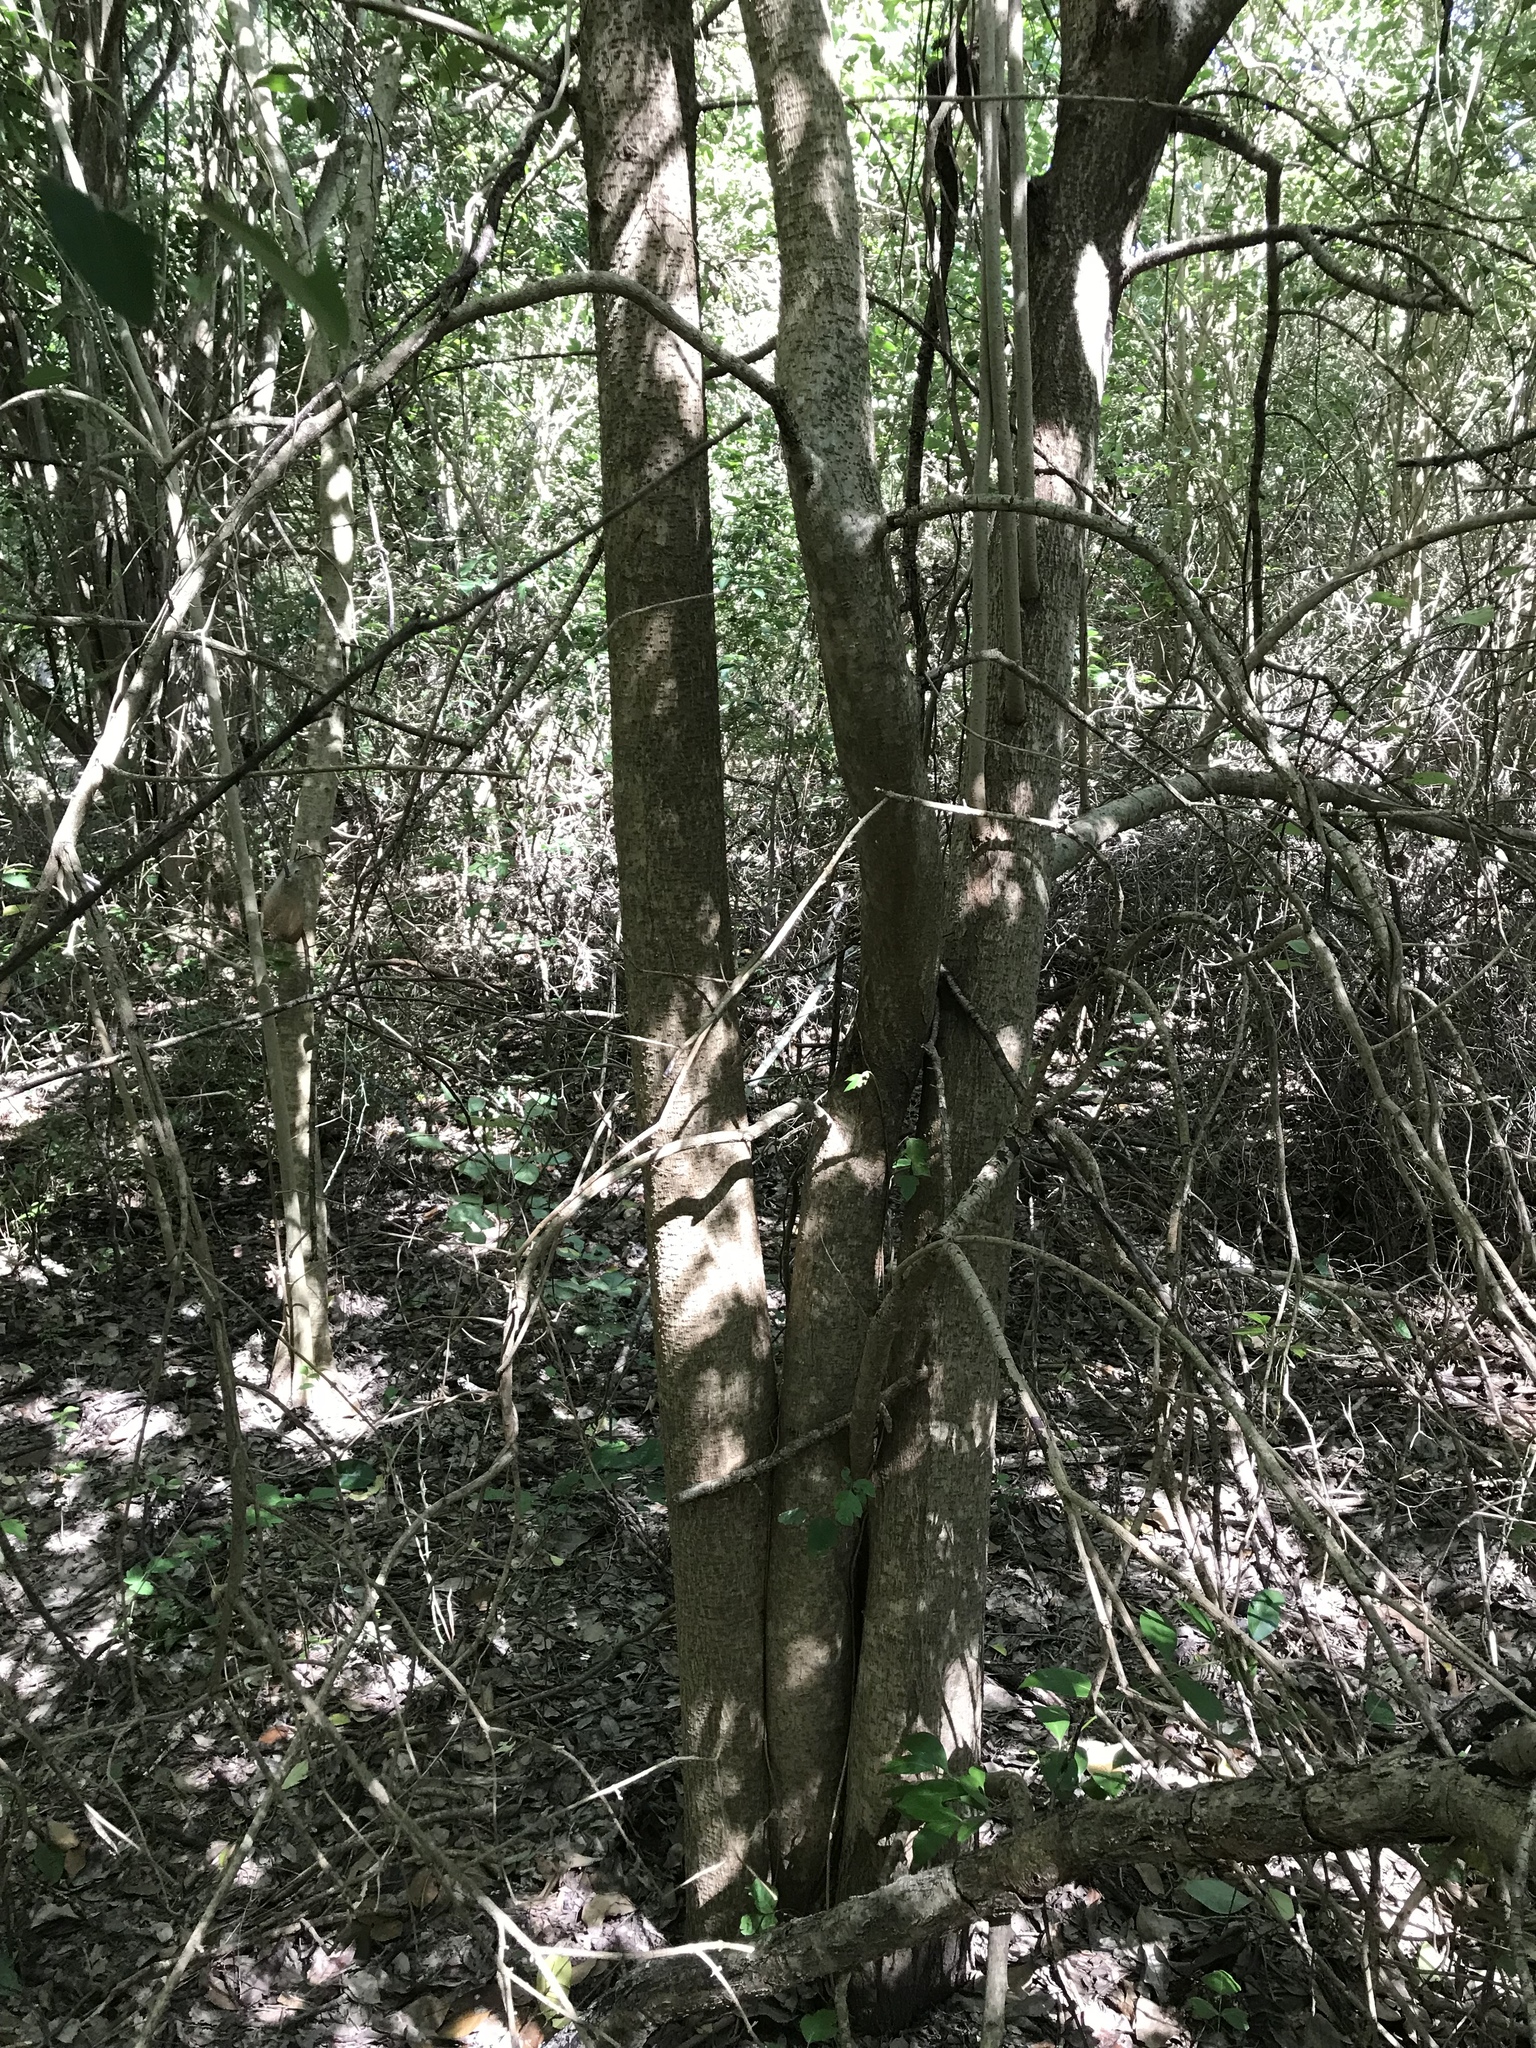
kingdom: Plantae
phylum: Tracheophyta
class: Magnoliopsida
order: Lamiales
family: Oleaceae
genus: Ligustrum
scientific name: Ligustrum lucidum
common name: Glossy privet
